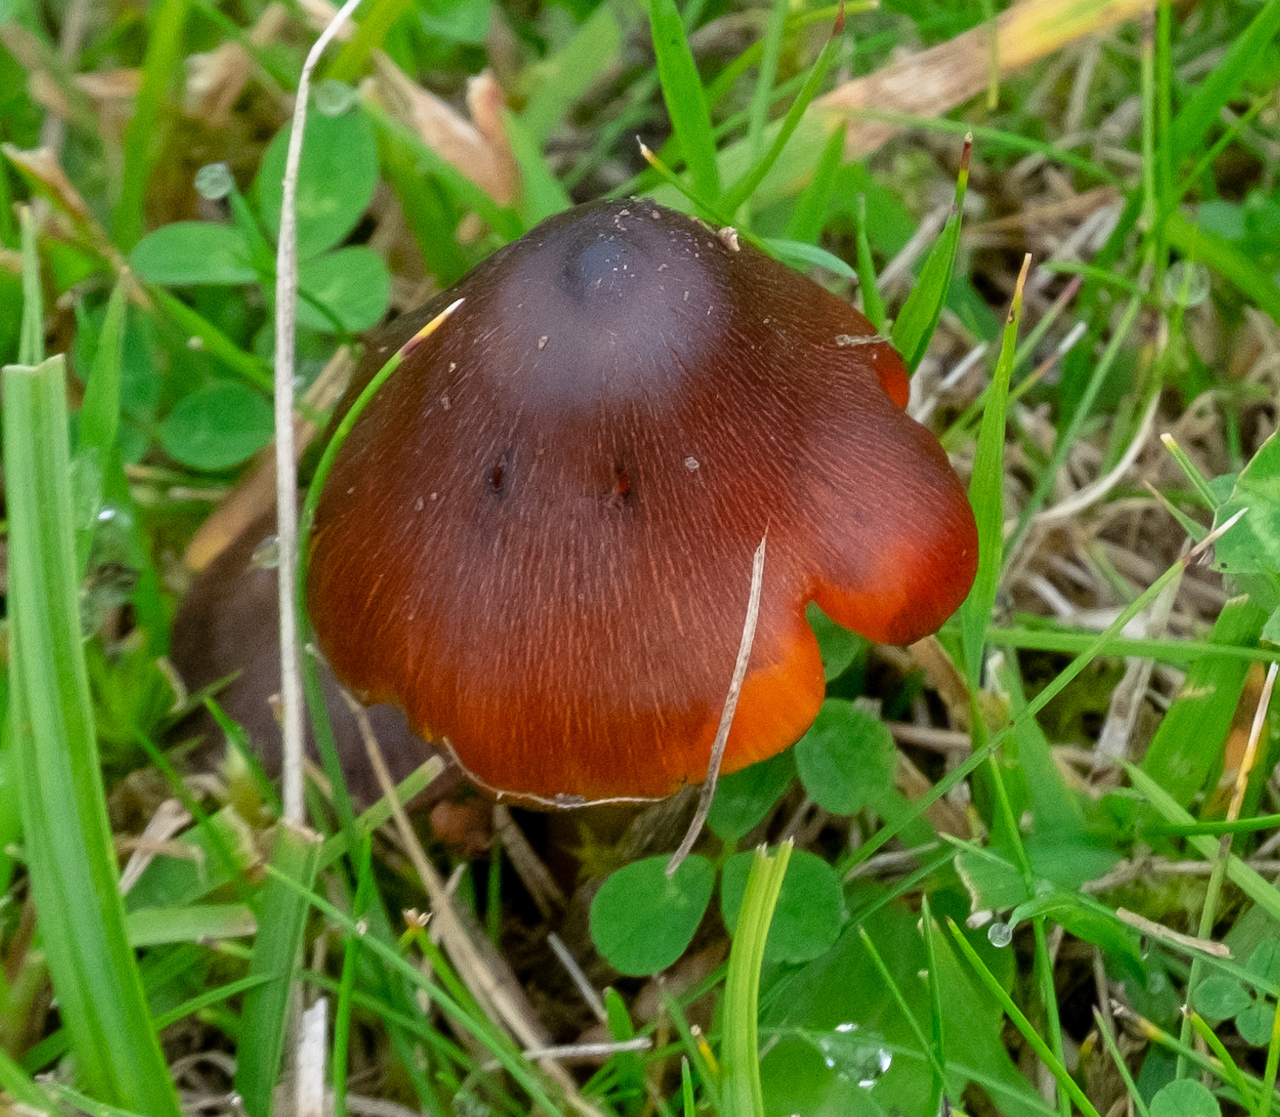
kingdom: Fungi
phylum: Basidiomycota
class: Agaricomycetes
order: Agaricales
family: Hygrophoraceae
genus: Hygrocybe
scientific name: Hygrocybe conica
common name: Blackening wax-cap
